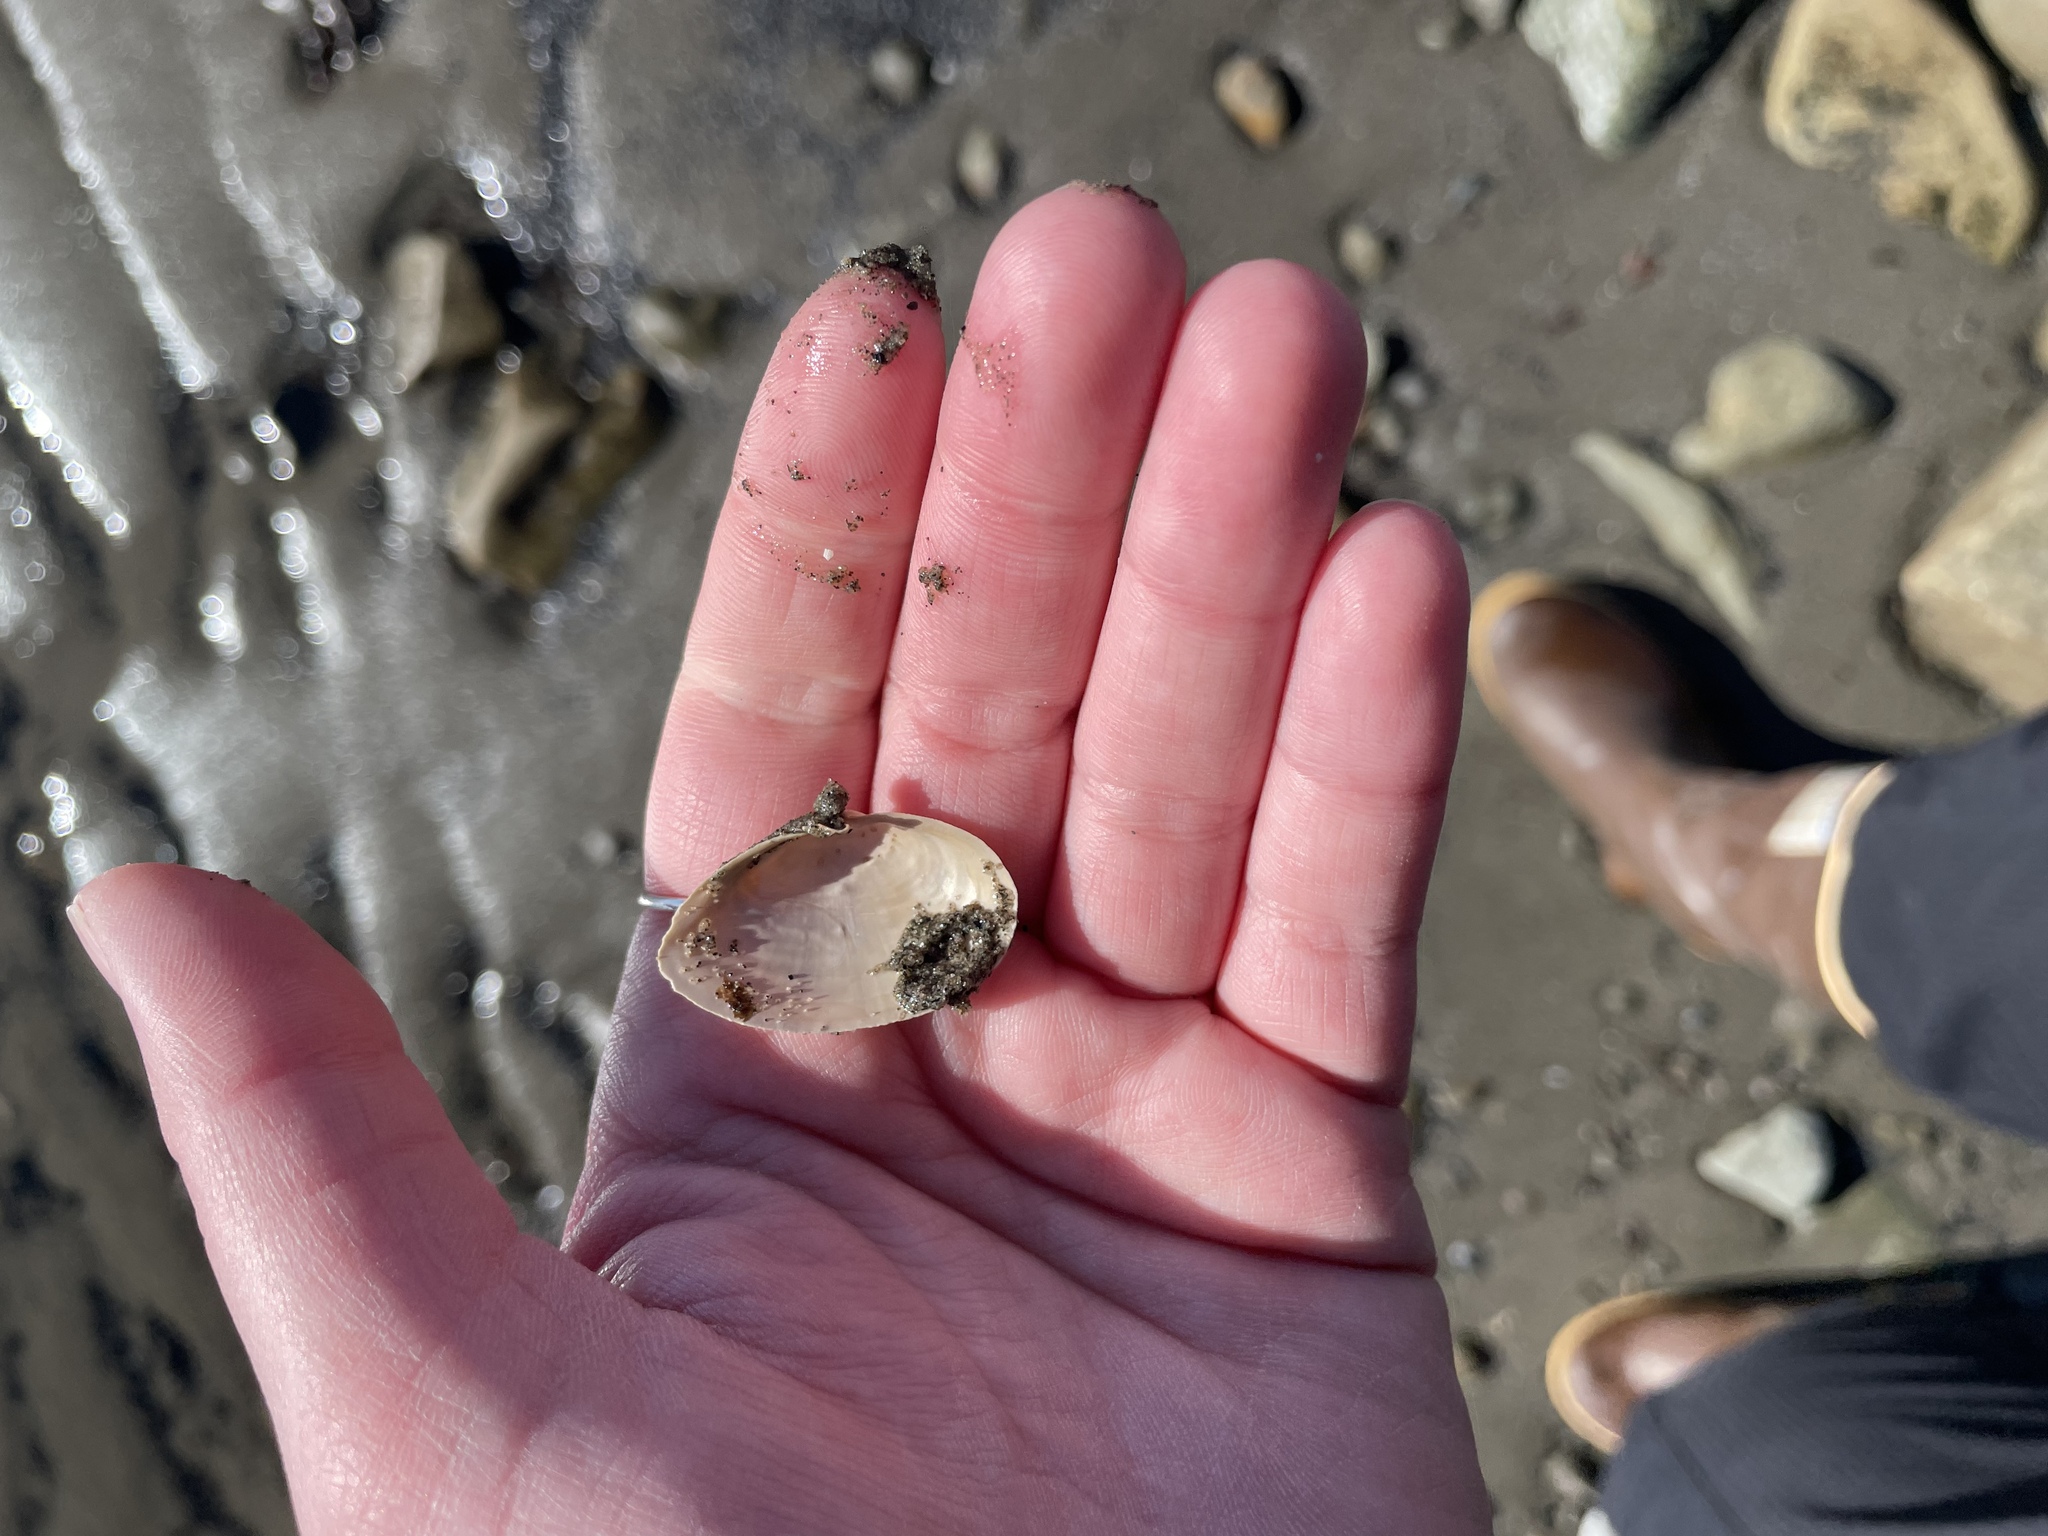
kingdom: Animalia
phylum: Mollusca
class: Bivalvia
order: Myida
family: Myidae
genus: Mya
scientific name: Mya arenaria
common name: Soft-shelled clam
